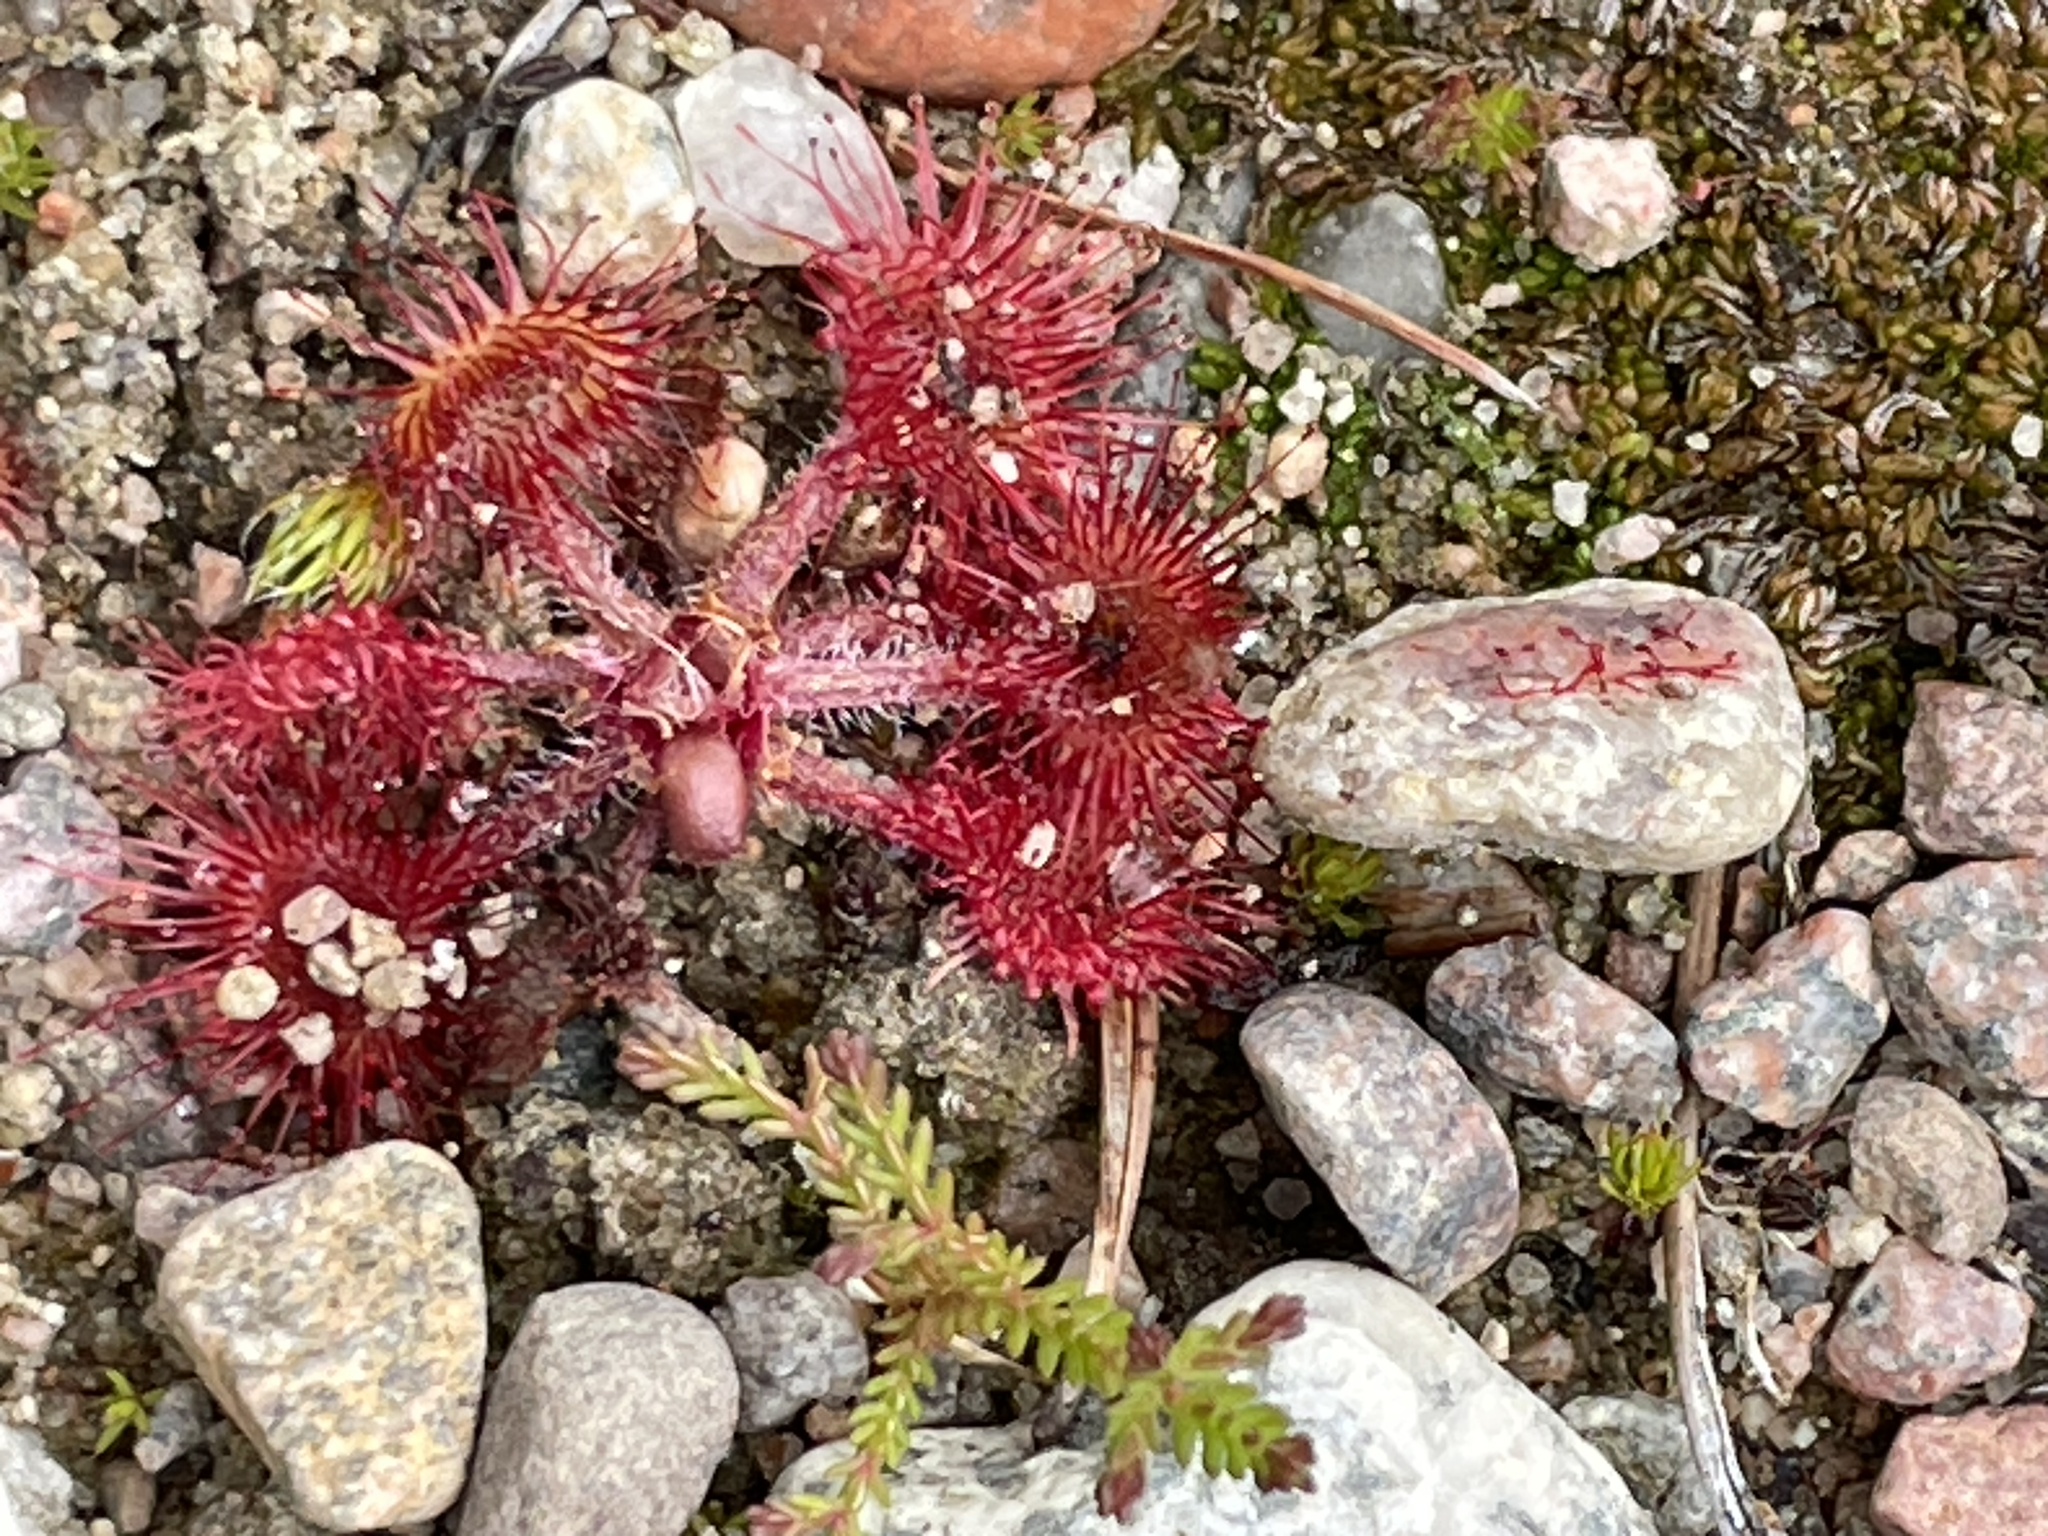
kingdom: Plantae
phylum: Tracheophyta
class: Magnoliopsida
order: Caryophyllales
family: Droseraceae
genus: Drosera
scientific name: Drosera rotundifolia
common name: Round-leaved sundew
